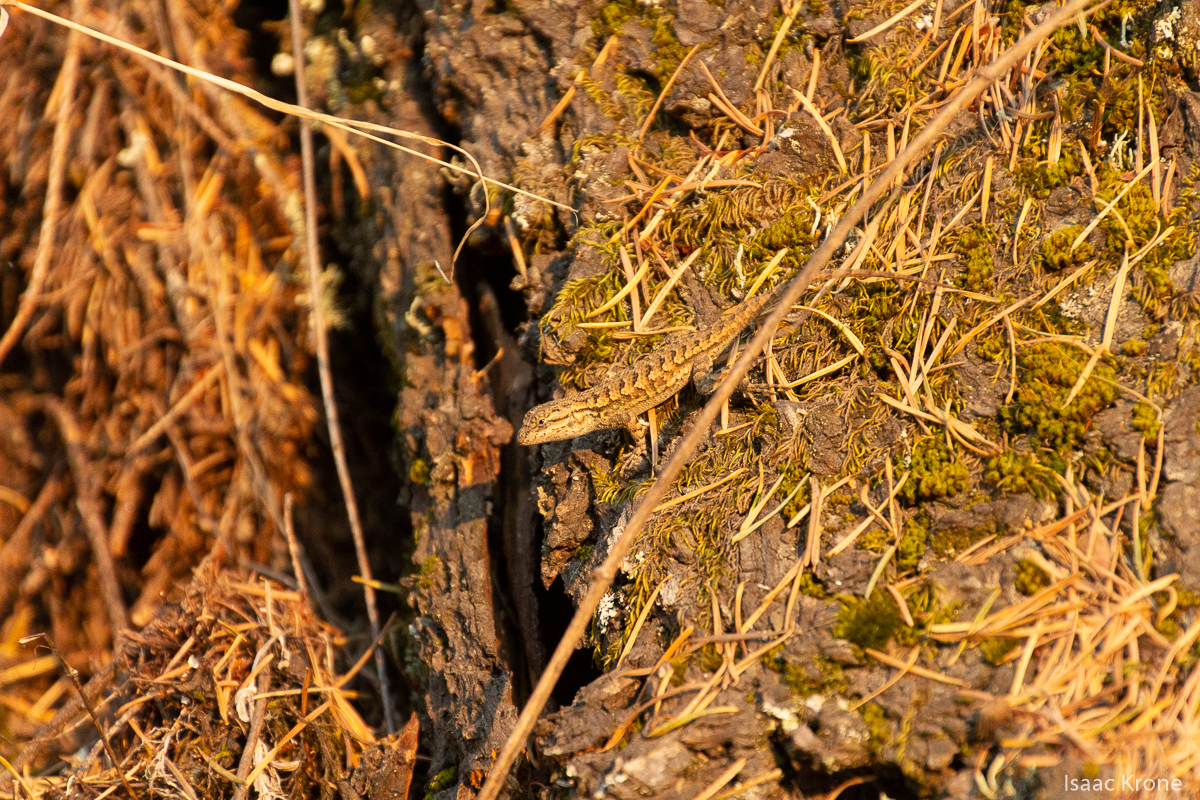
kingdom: Animalia
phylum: Chordata
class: Squamata
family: Phrynosomatidae
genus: Sceloporus
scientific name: Sceloporus occidentalis
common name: Western fence lizard
